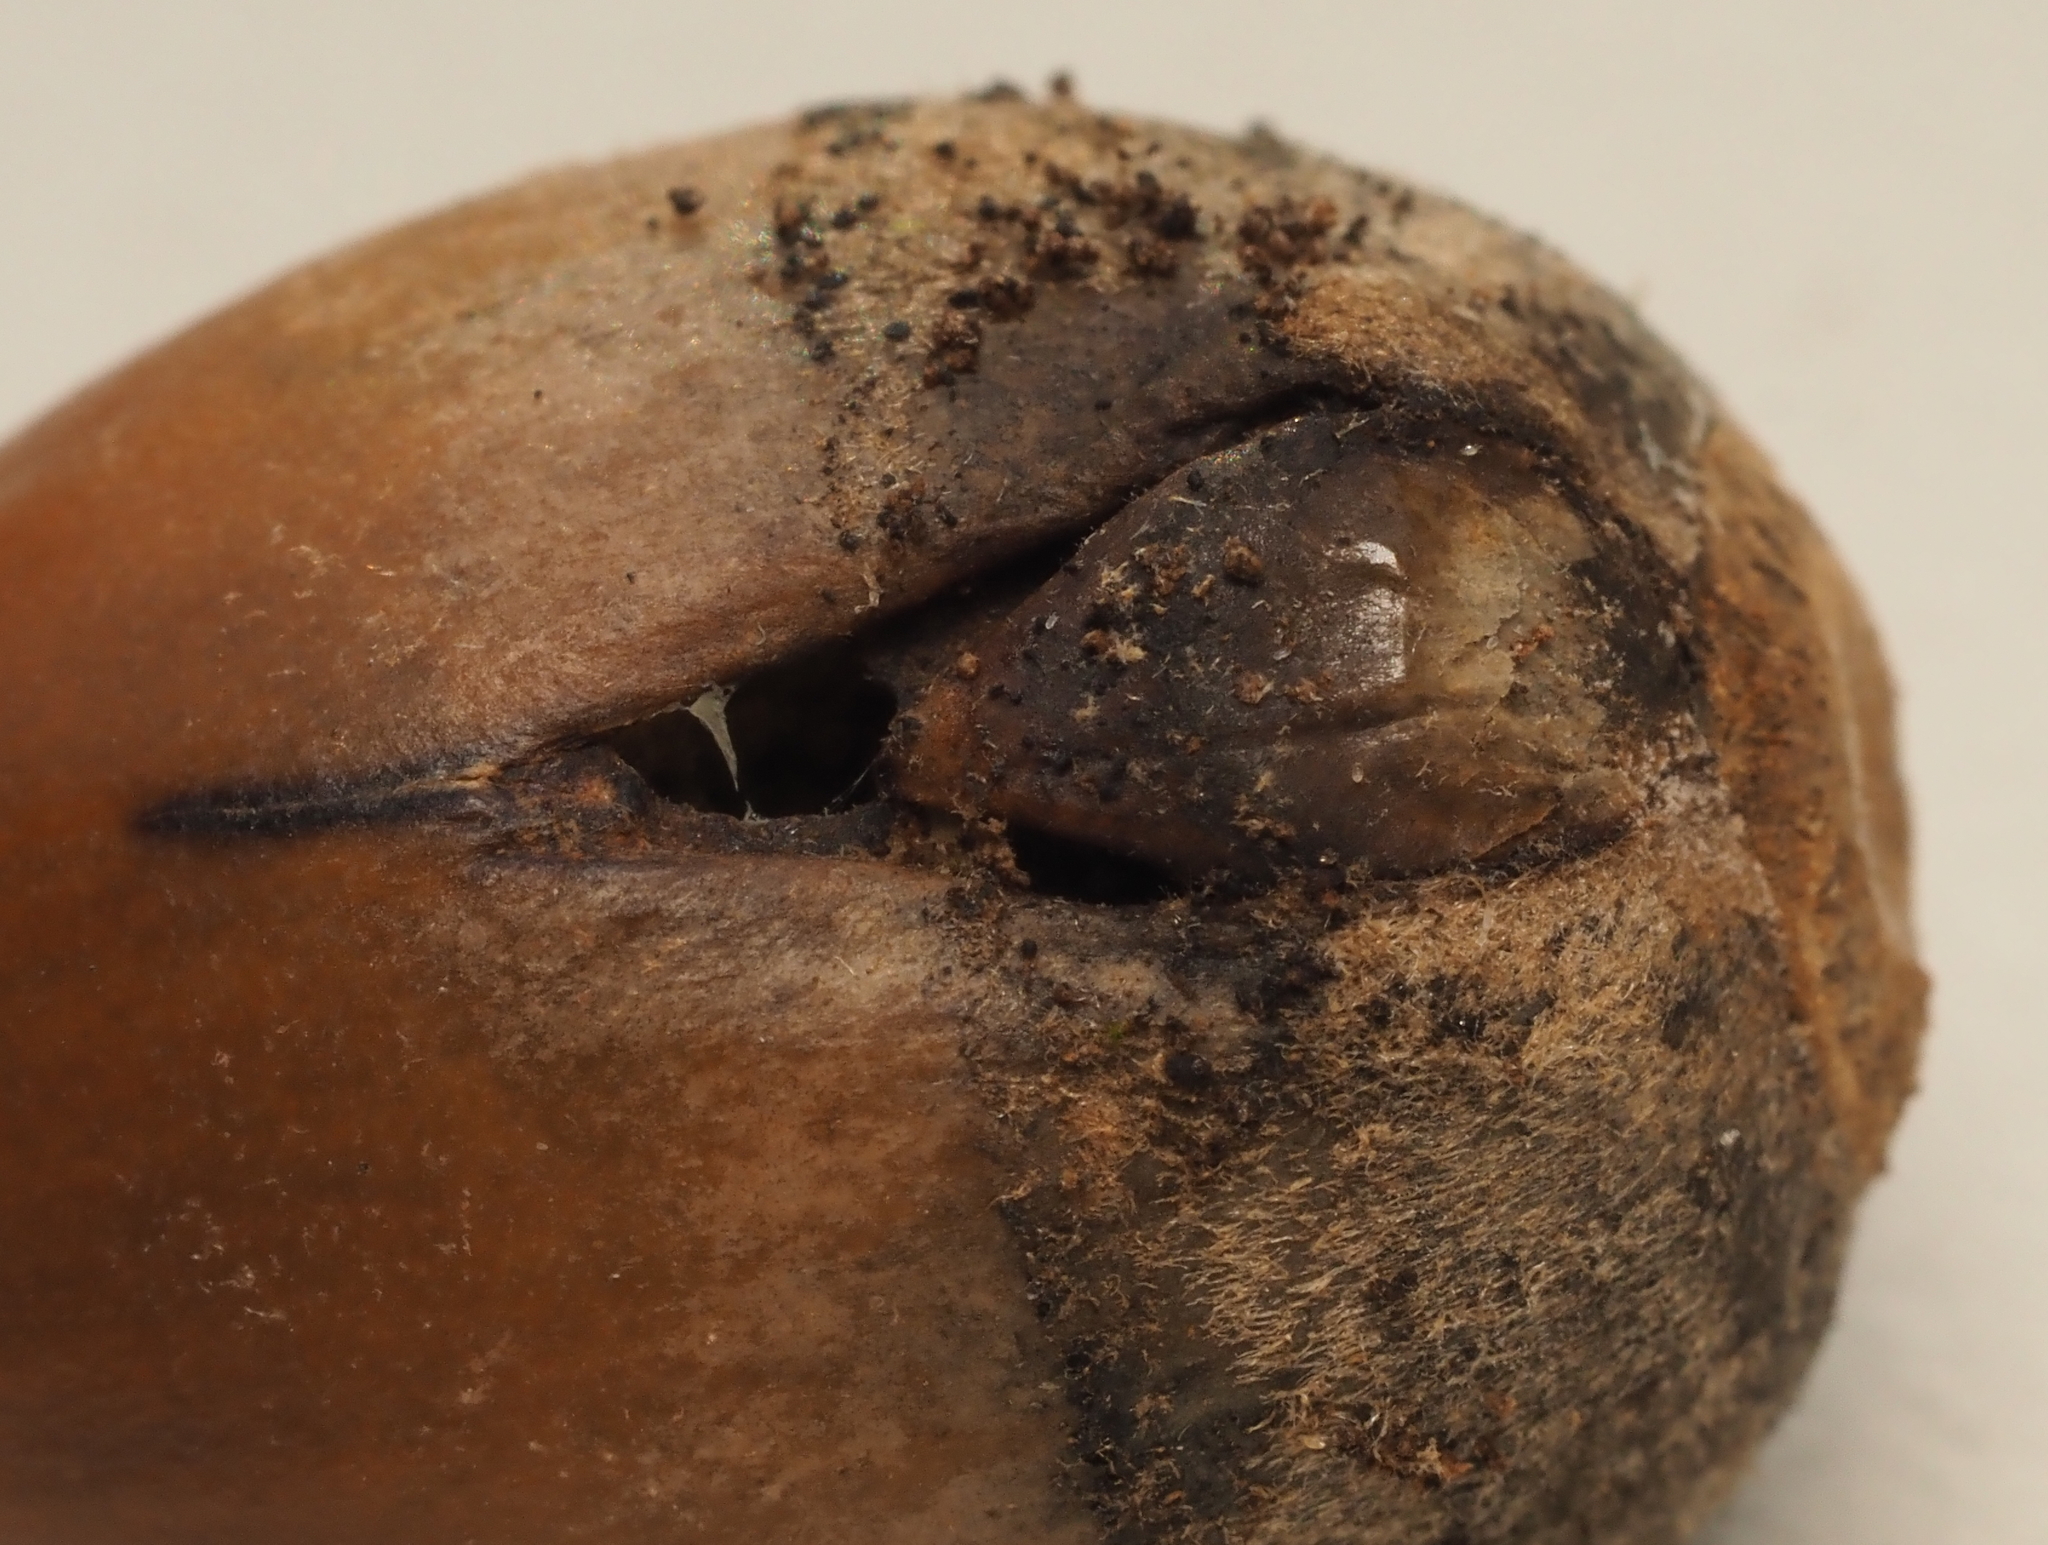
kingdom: Animalia
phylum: Arthropoda
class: Insecta
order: Hymenoptera
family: Cynipidae
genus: Callirhytis
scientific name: Callirhytis
